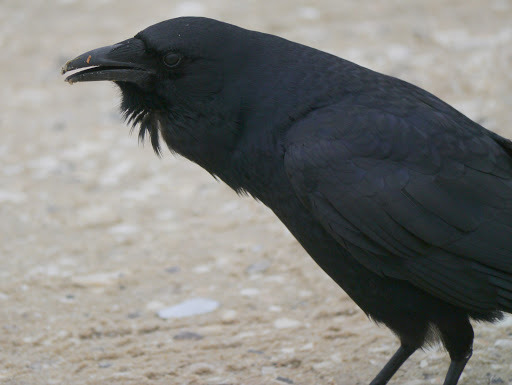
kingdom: Animalia
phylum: Chordata
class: Aves
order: Passeriformes
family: Corvidae
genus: Corvus
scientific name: Corvus brachyrhynchos
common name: American crow
